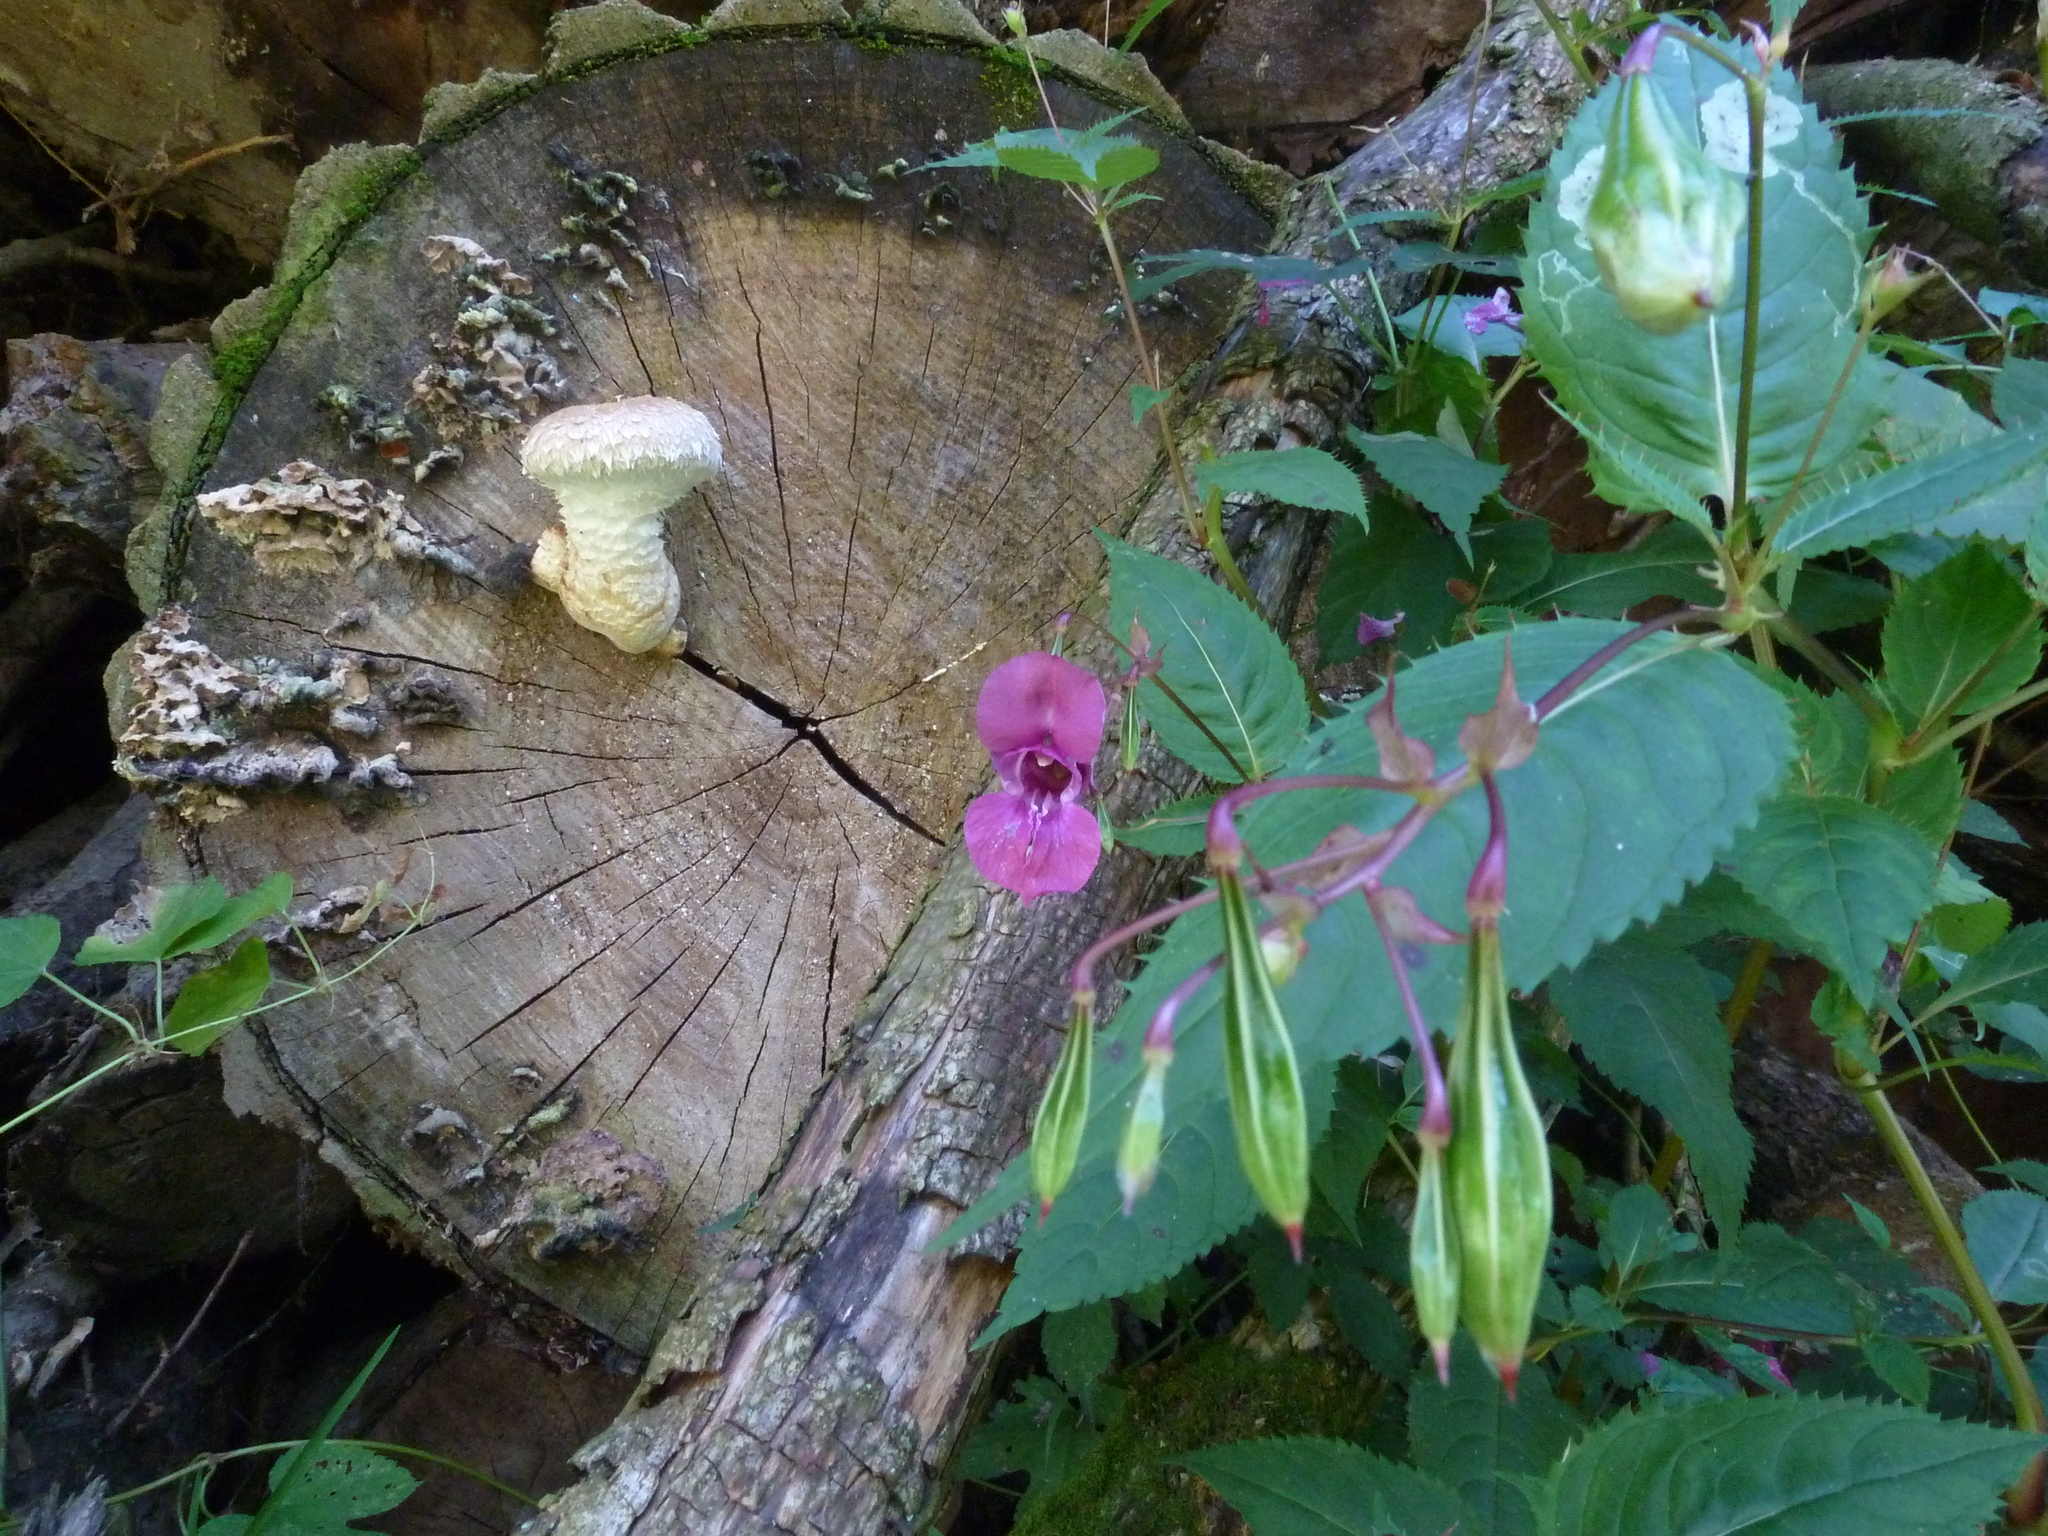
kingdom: Plantae
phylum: Tracheophyta
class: Magnoliopsida
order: Ericales
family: Balsaminaceae
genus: Impatiens
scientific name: Impatiens glandulifera
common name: Himalayan balsam
